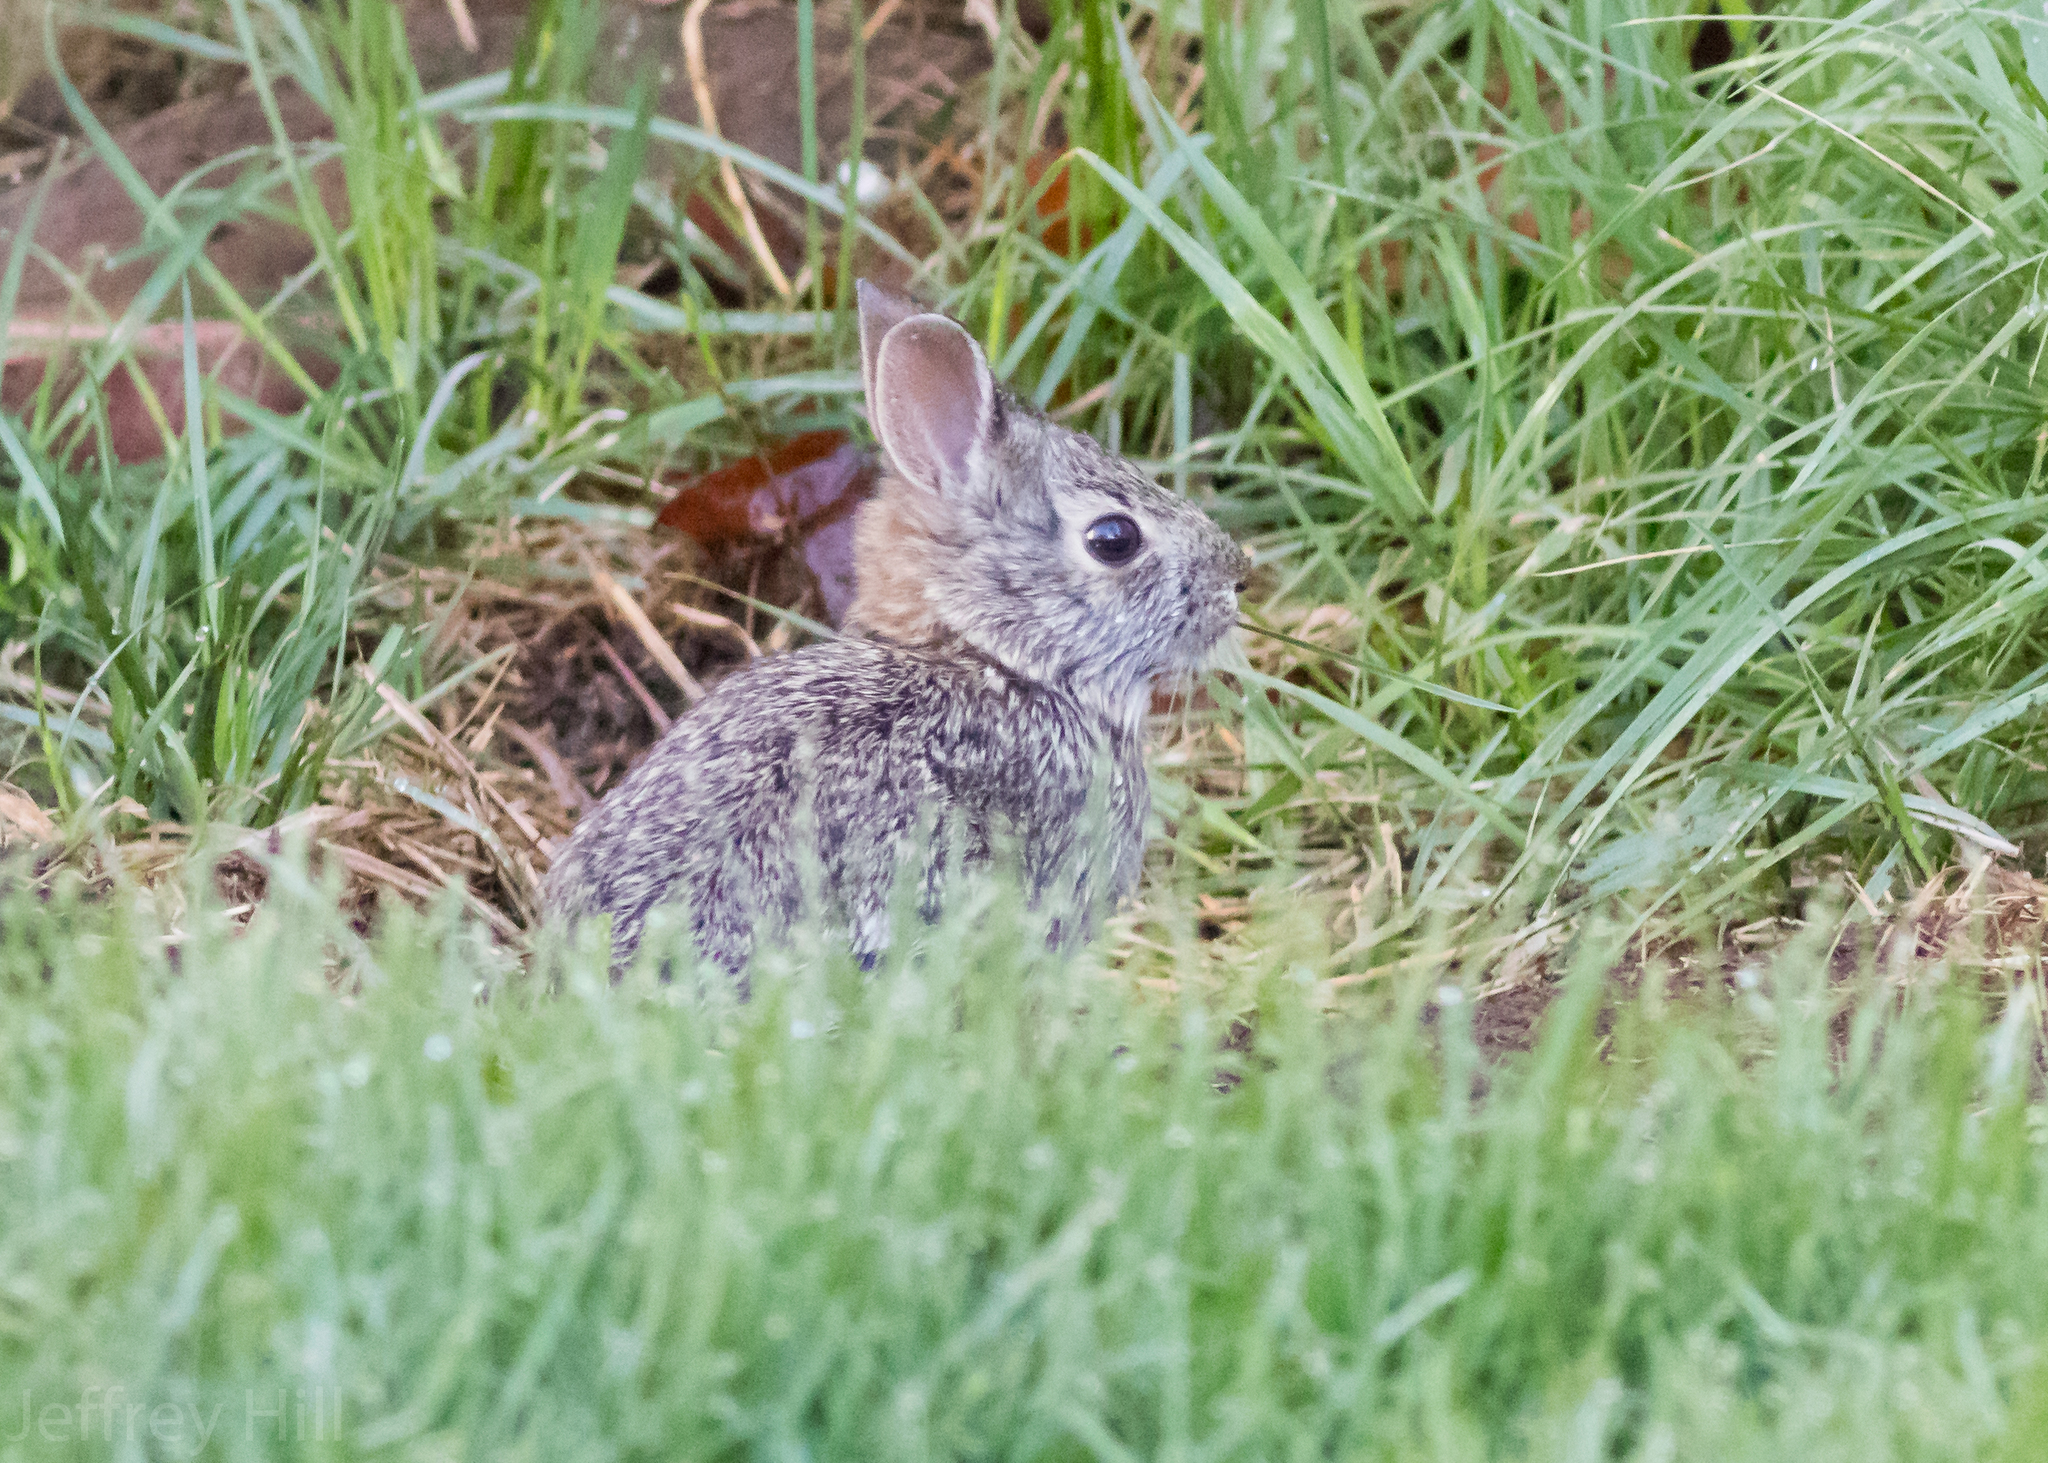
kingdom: Animalia
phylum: Chordata
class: Mammalia
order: Lagomorpha
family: Leporidae
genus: Sylvilagus
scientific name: Sylvilagus floridanus
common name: Eastern cottontail
